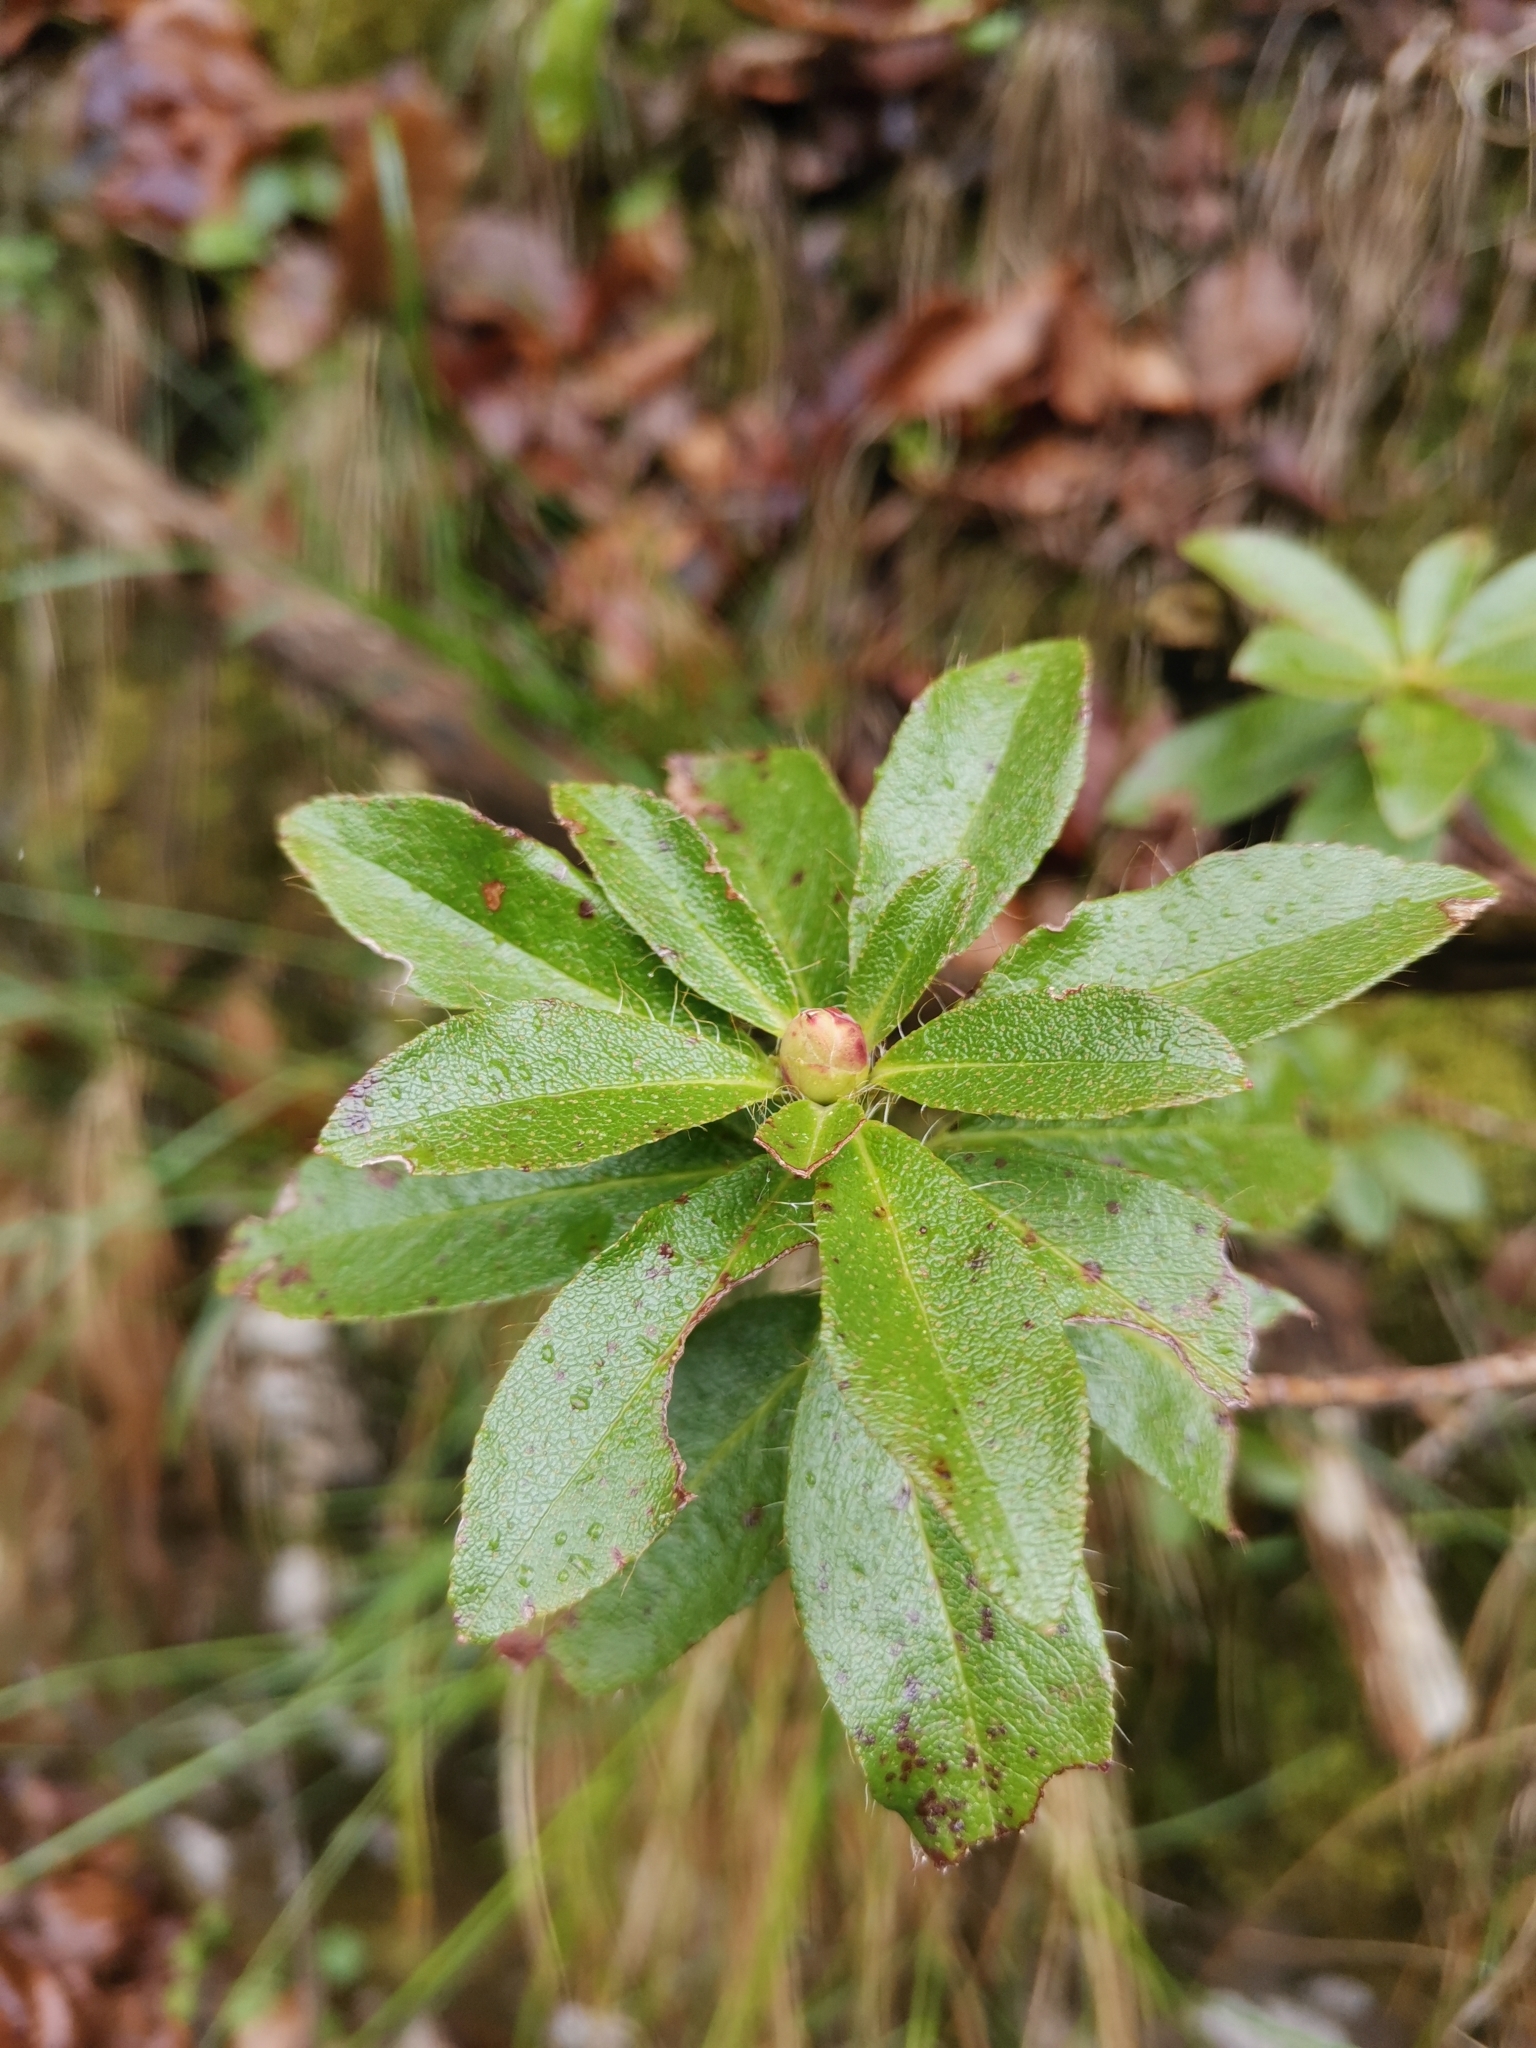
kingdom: Plantae
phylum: Tracheophyta
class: Magnoliopsida
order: Ericales
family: Ericaceae
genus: Rhododendron
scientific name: Rhododendron hirsutum
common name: Hairy alpenrose
